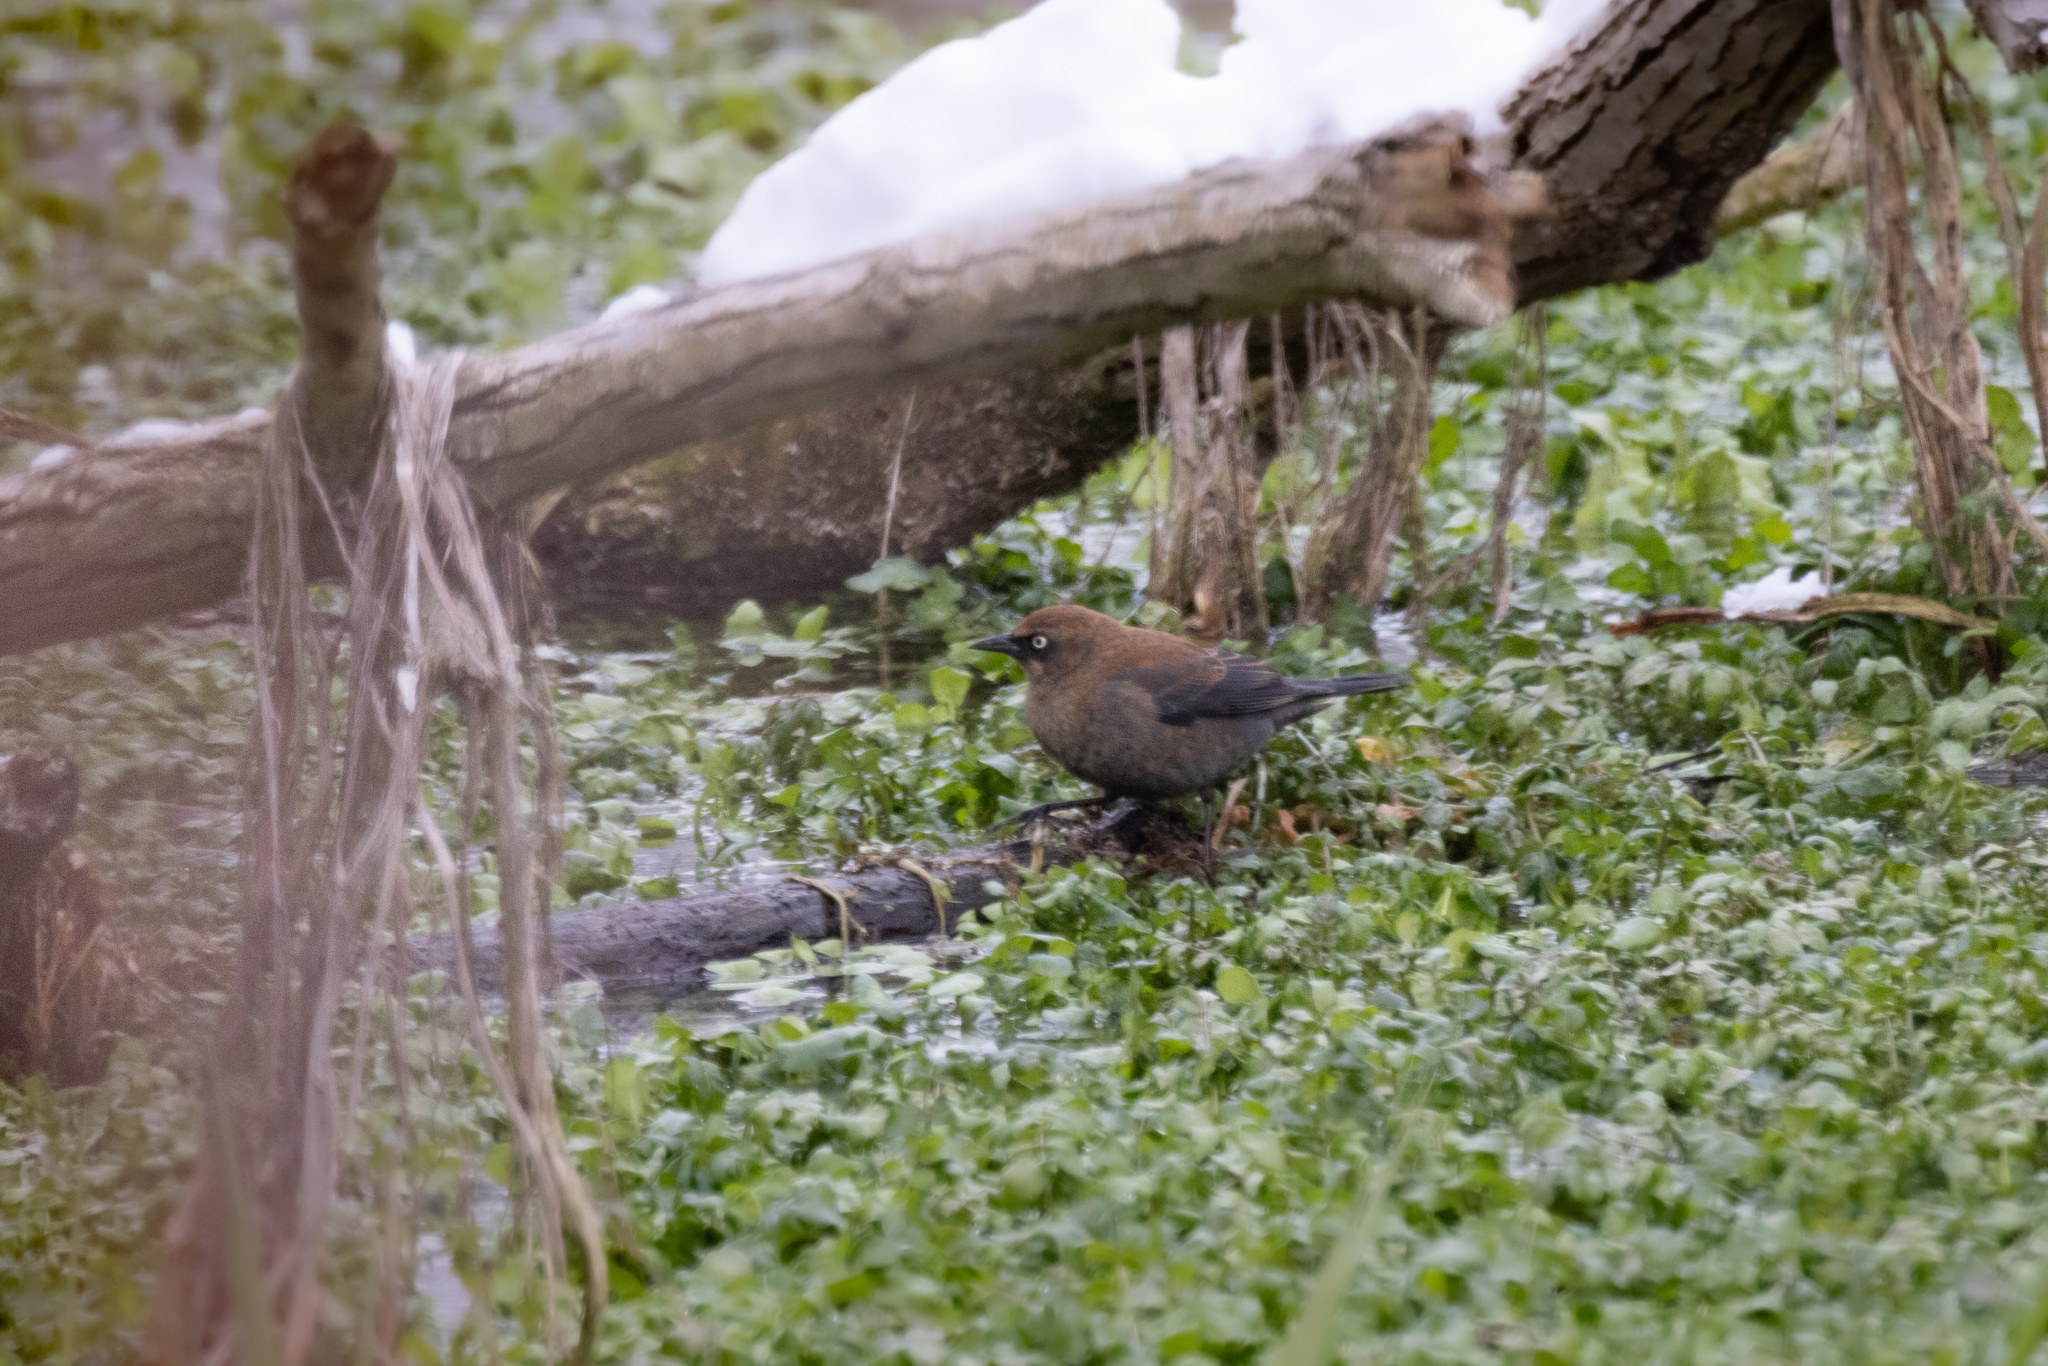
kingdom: Animalia
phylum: Chordata
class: Aves
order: Passeriformes
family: Icteridae
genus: Euphagus
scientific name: Euphagus carolinus
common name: Rusty blackbird
